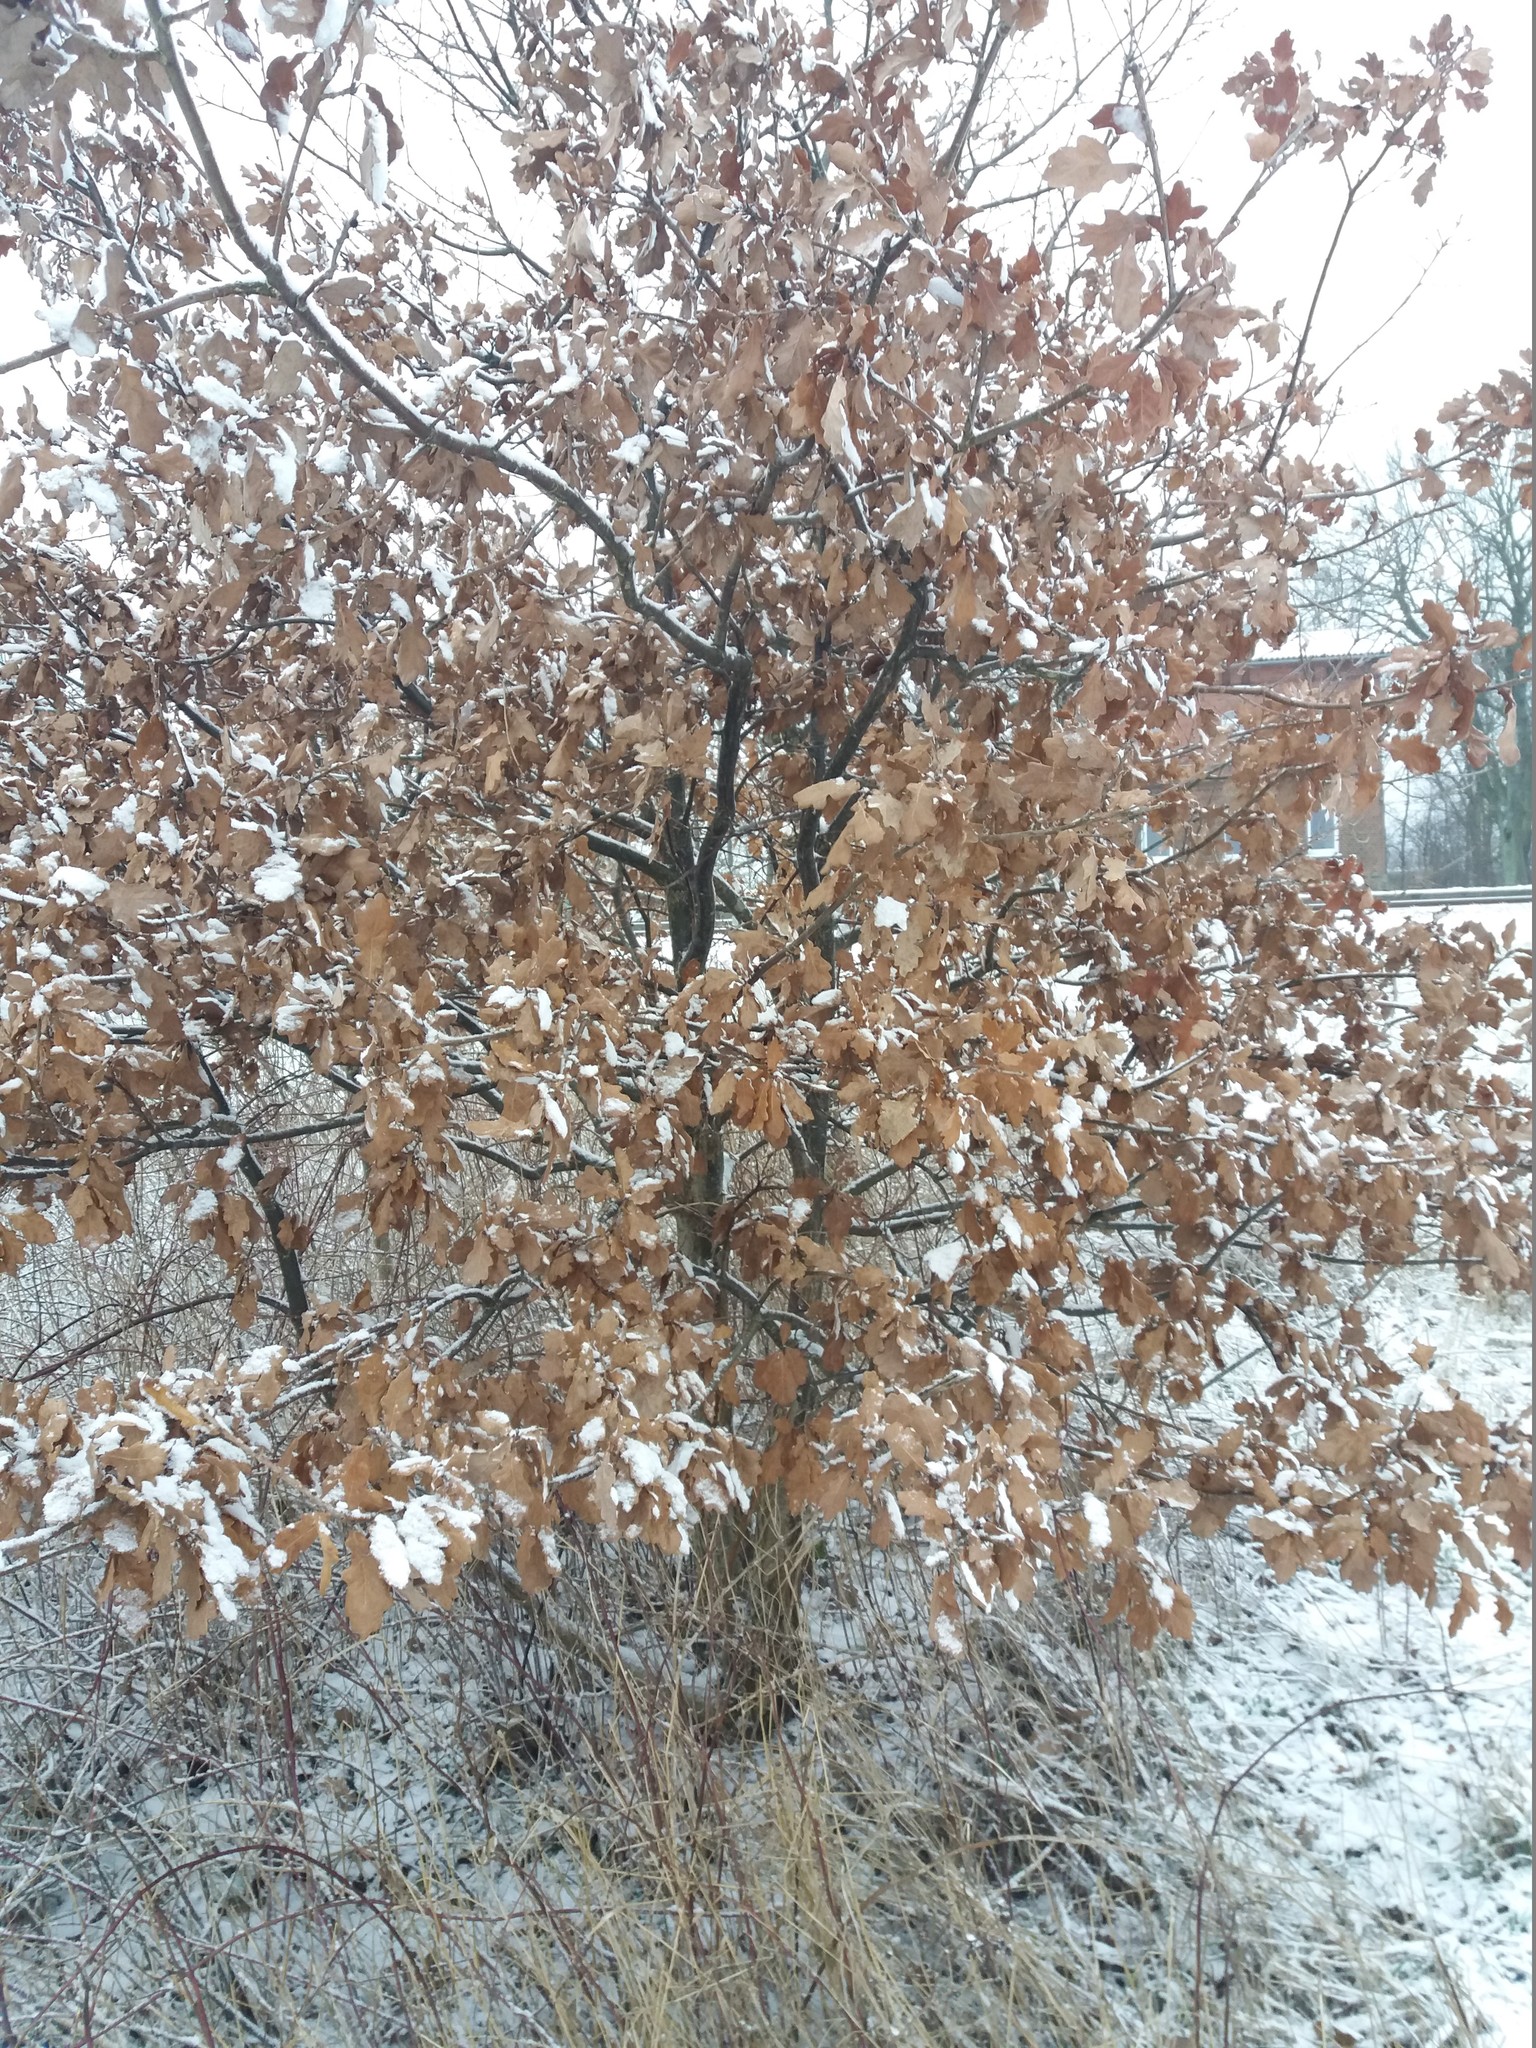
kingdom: Plantae
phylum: Tracheophyta
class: Magnoliopsida
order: Fagales
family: Fagaceae
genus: Quercus
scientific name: Quercus robur
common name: Pedunculate oak
